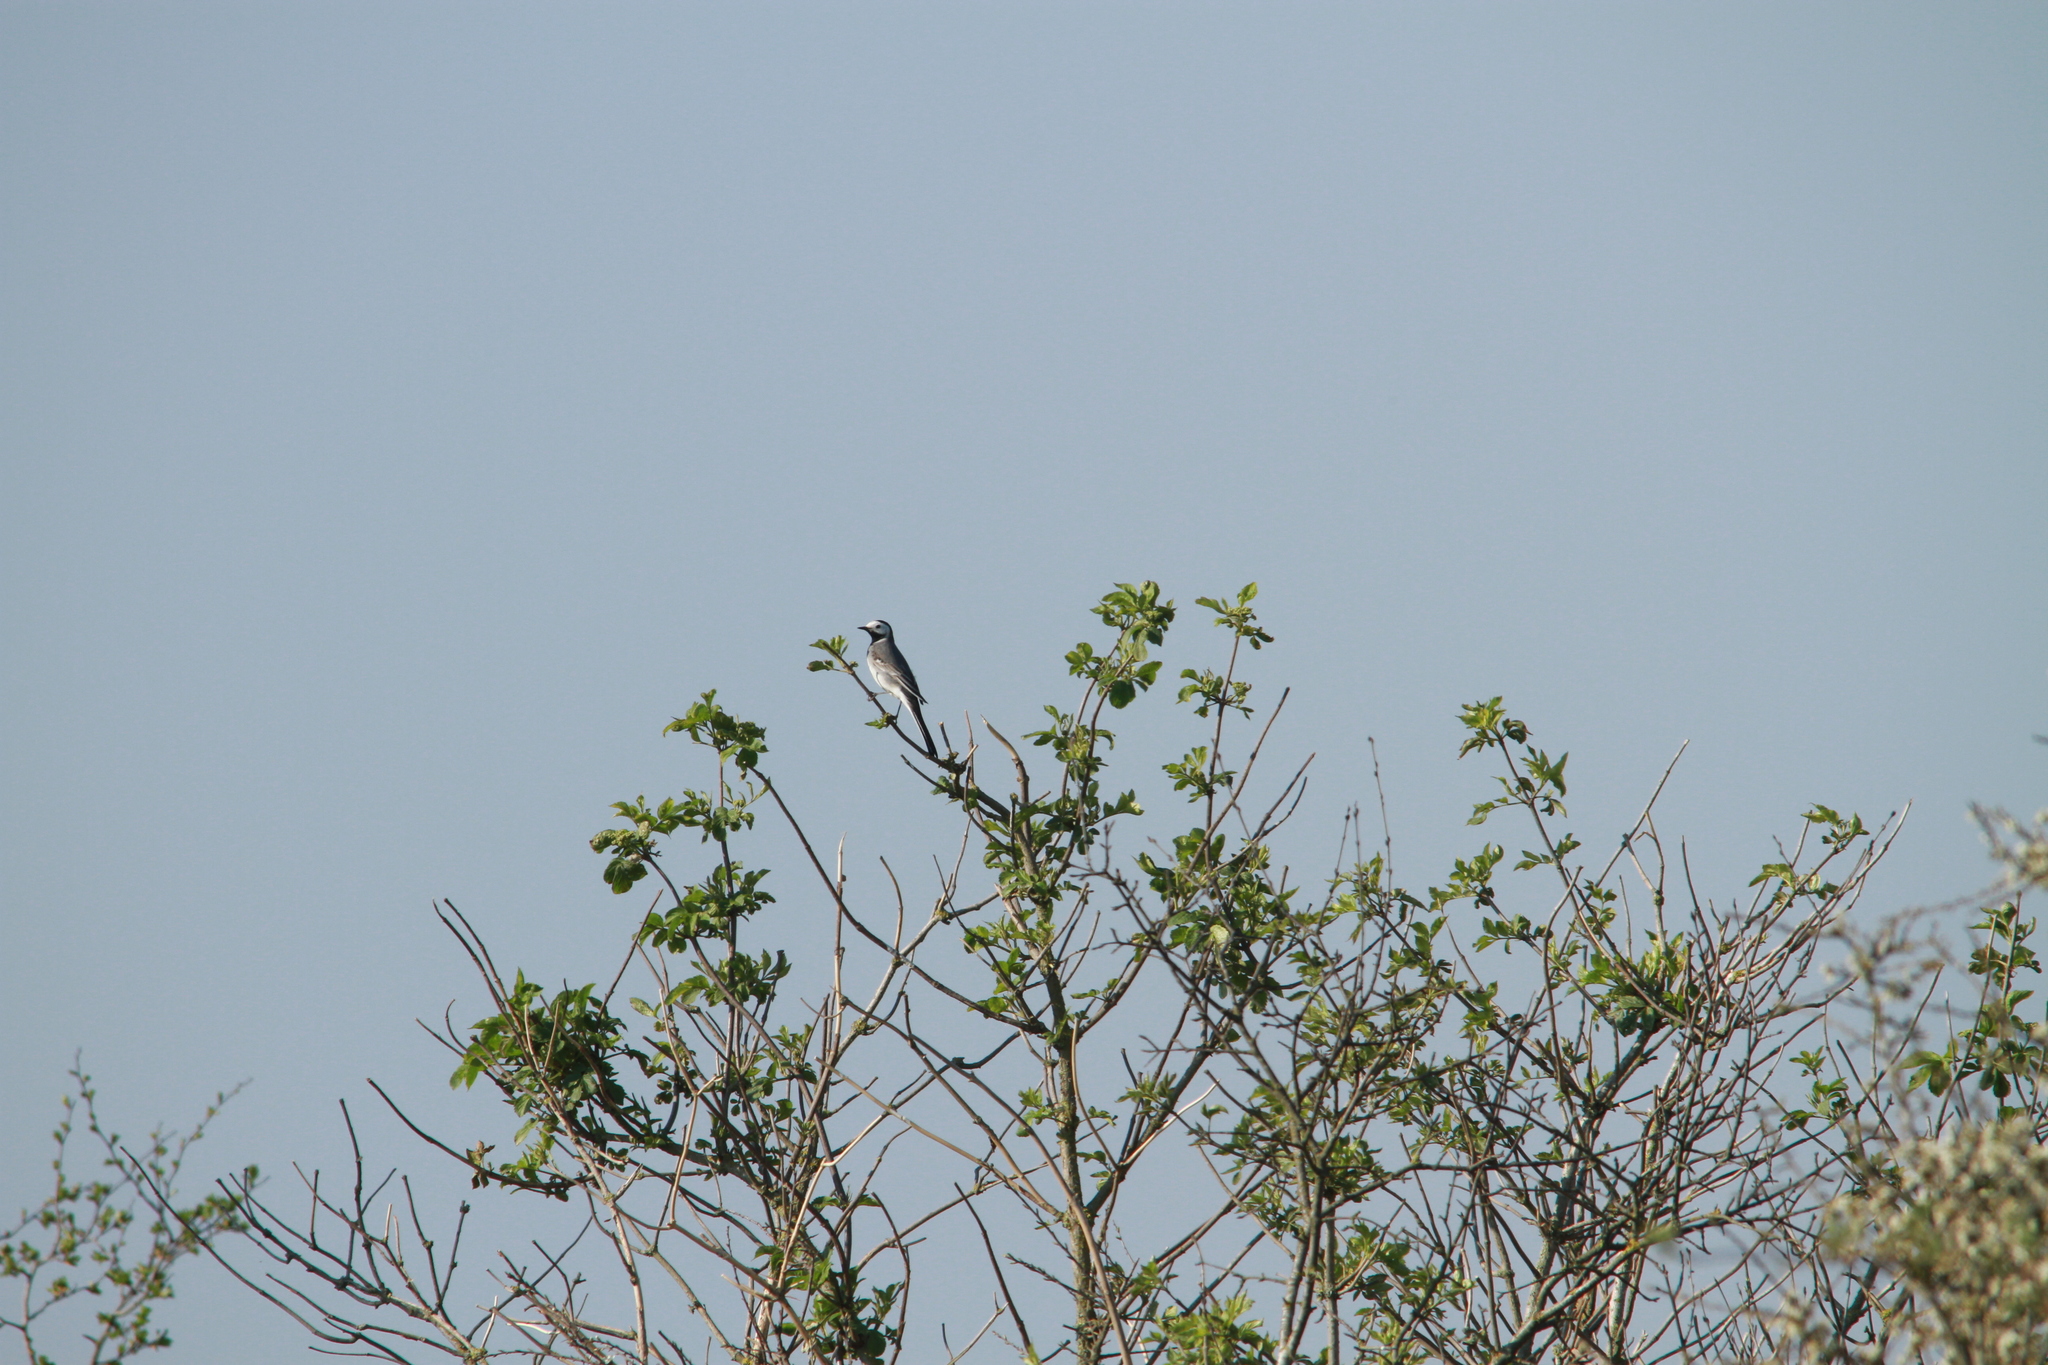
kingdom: Animalia
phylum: Chordata
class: Aves
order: Passeriformes
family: Motacillidae
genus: Motacilla
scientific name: Motacilla alba
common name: White wagtail
